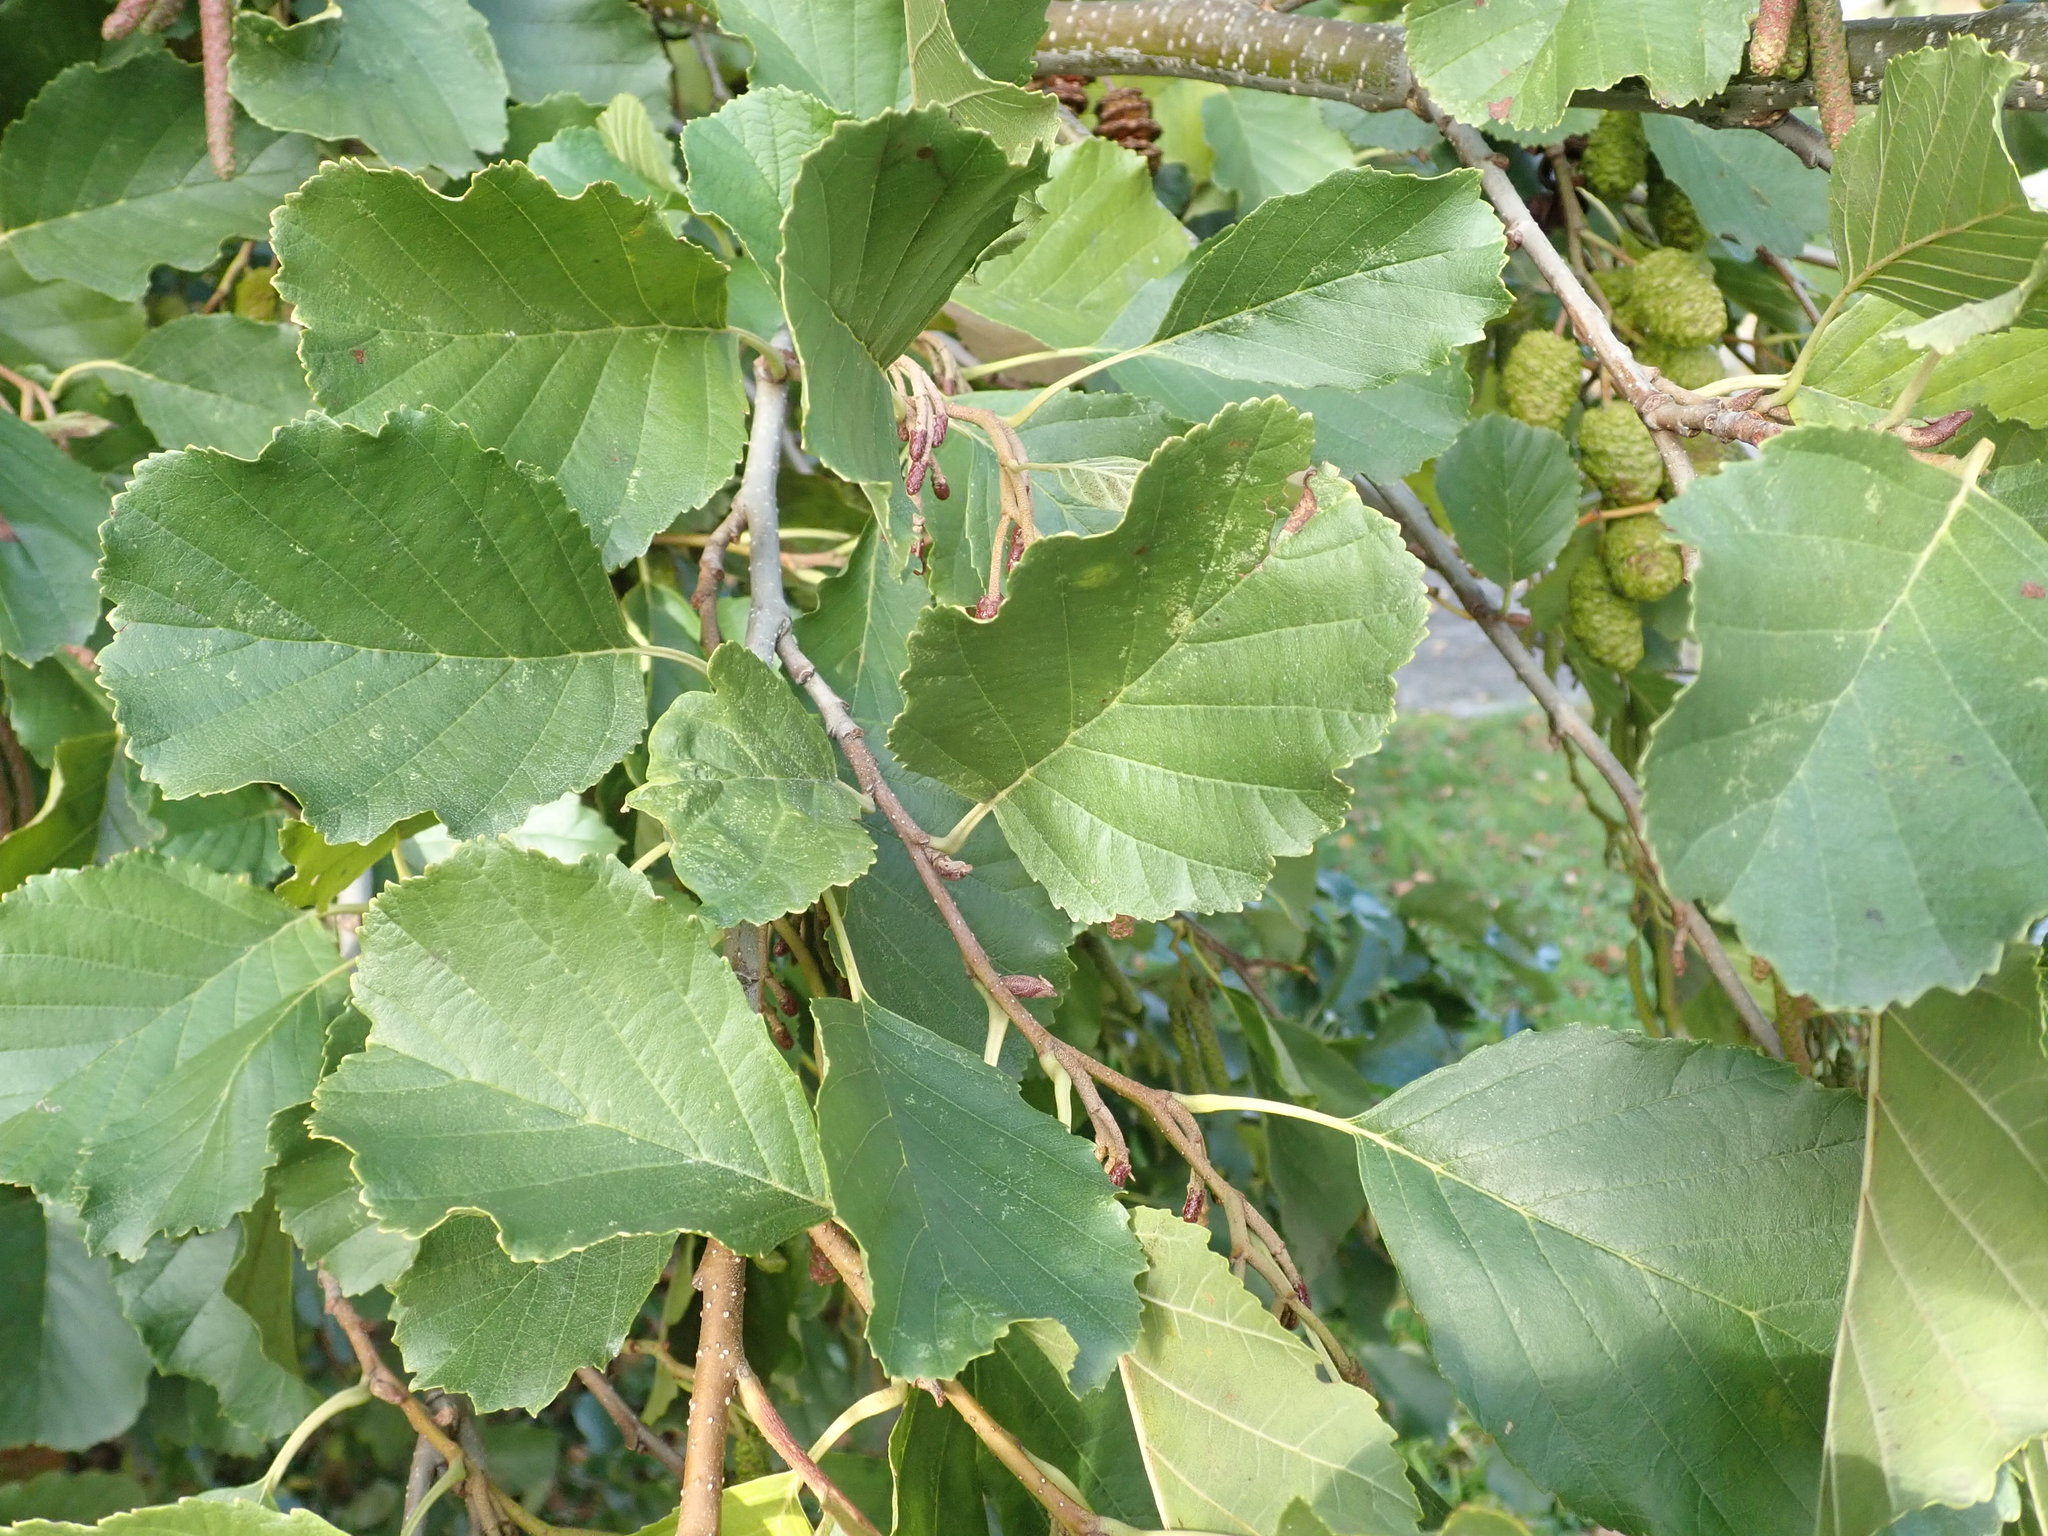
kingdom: Plantae
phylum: Tracheophyta
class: Magnoliopsida
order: Fagales
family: Betulaceae
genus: Alnus
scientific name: Alnus glutinosa
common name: Black alder
